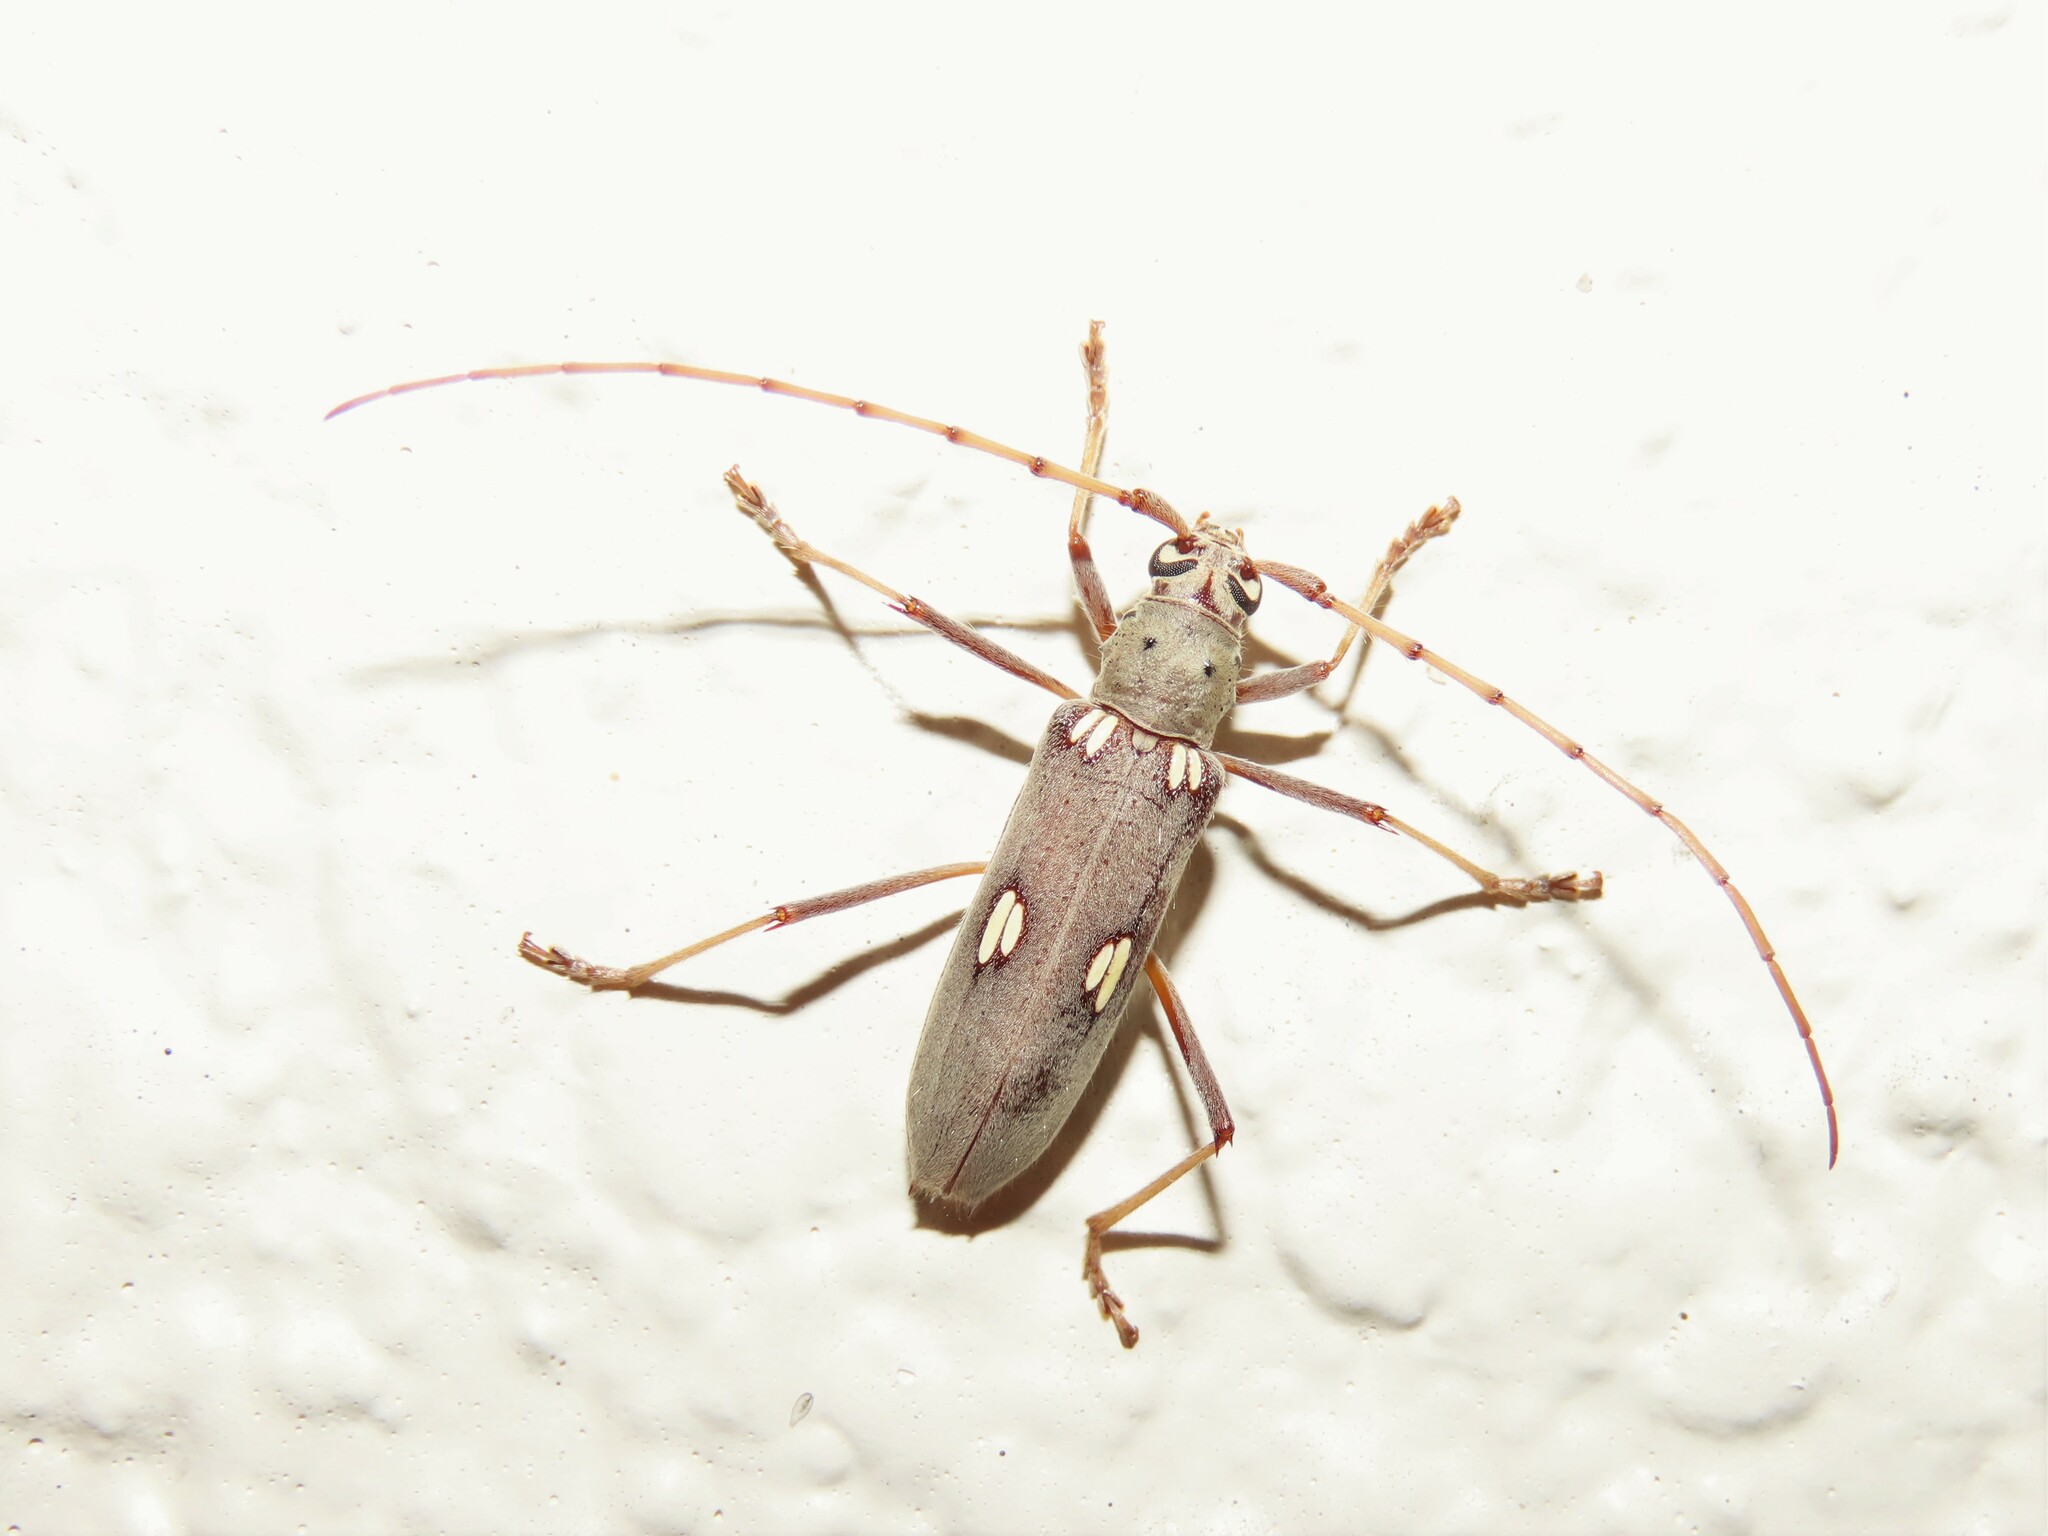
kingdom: Animalia
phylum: Arthropoda
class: Insecta
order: Coleoptera
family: Cerambycidae
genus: Eburia
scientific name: Eburia distincta
